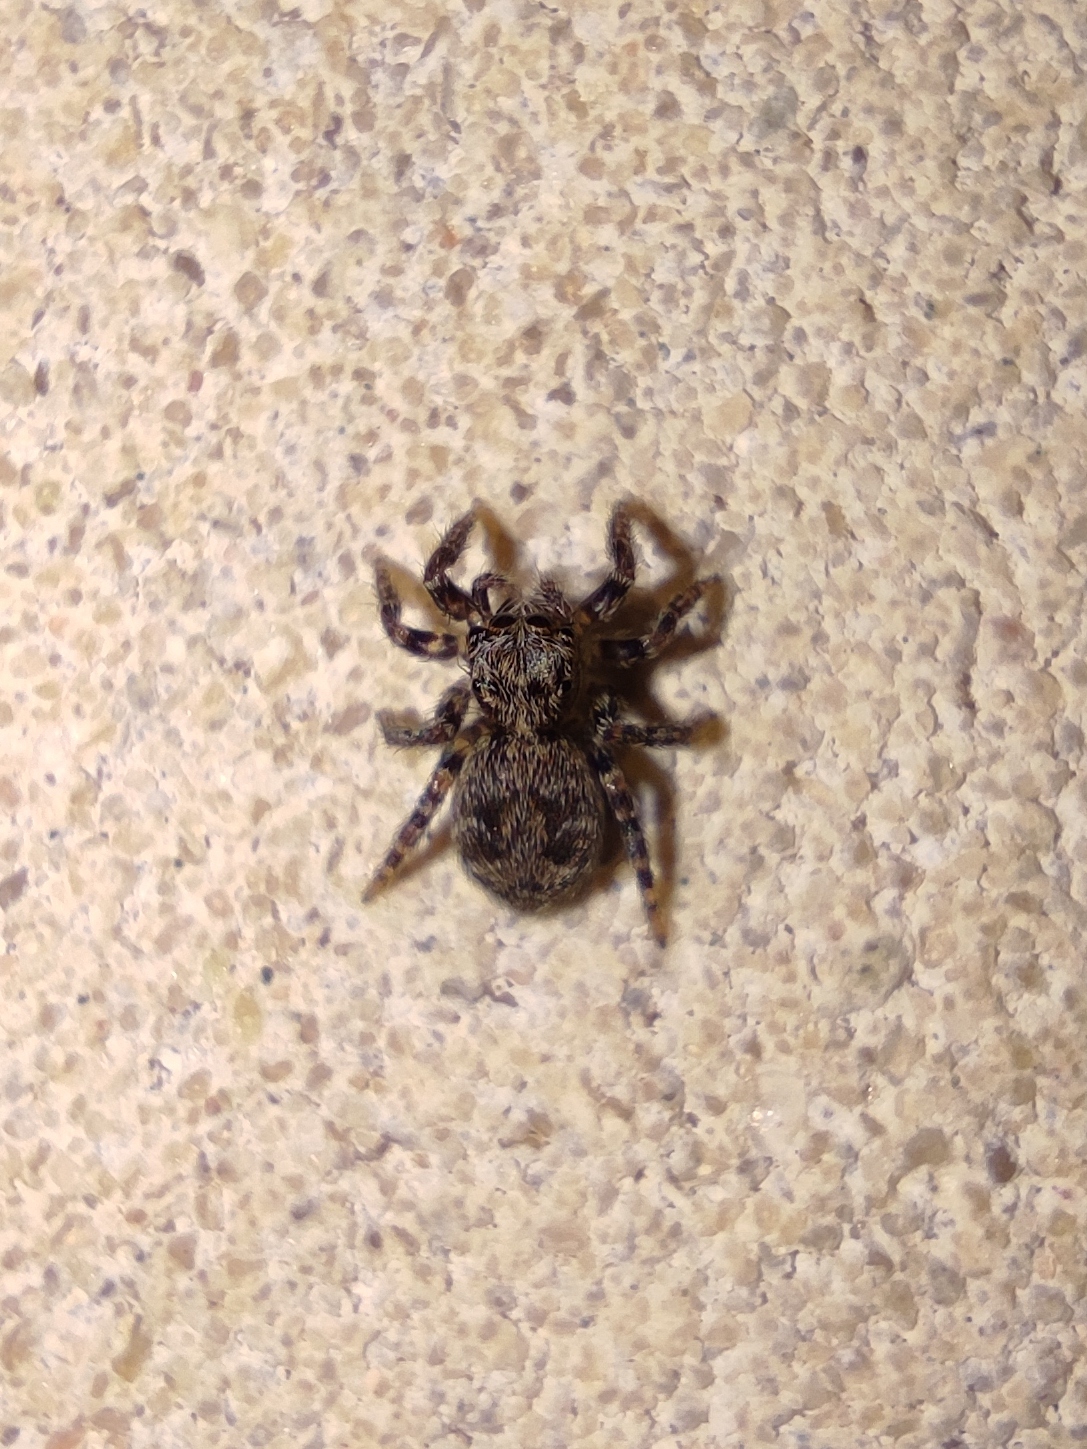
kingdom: Animalia
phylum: Arthropoda
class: Arachnida
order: Araneae
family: Salticidae
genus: Pseudeuophrys
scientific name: Pseudeuophrys
